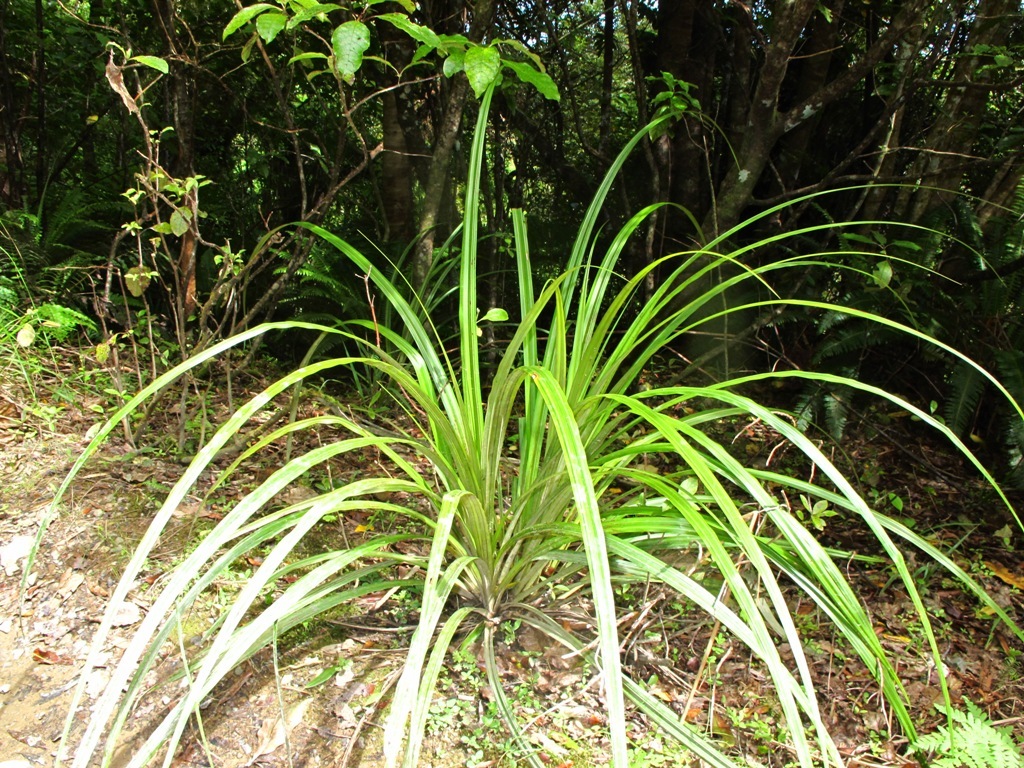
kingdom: Plantae
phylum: Tracheophyta
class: Liliopsida
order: Asparagales
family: Asteliaceae
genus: Astelia
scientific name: Astelia fragrans
